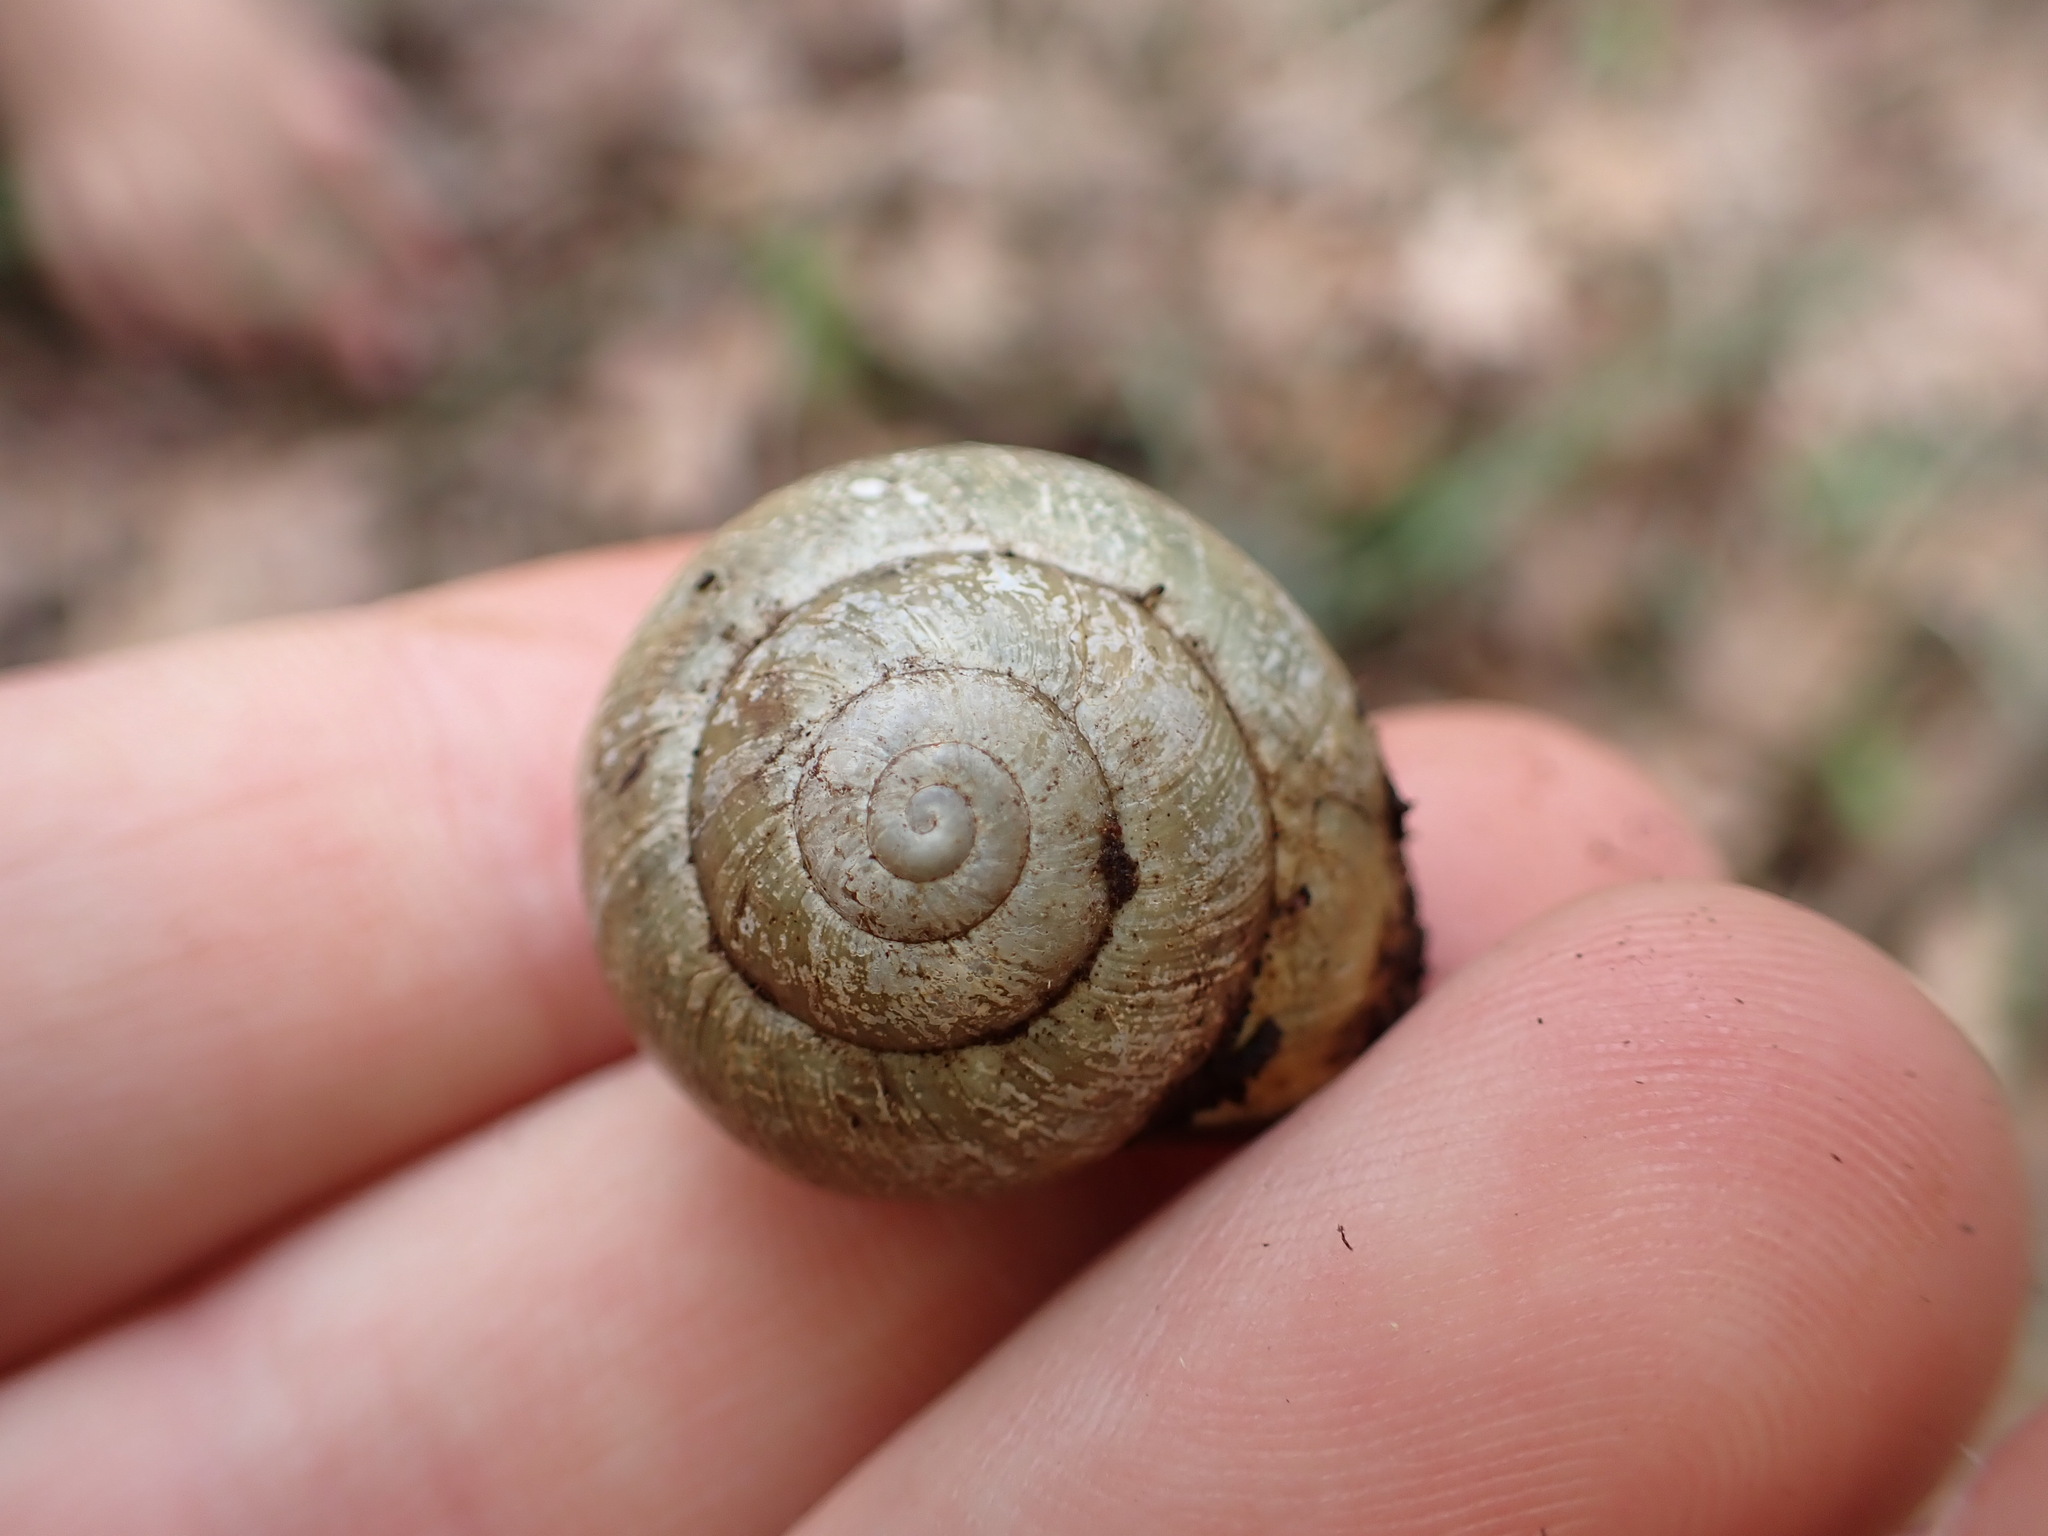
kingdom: Animalia
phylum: Mollusca
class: Gastropoda
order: Stylommatophora
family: Helicidae
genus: Cepaea
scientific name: Cepaea nemoralis
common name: Grovesnail
